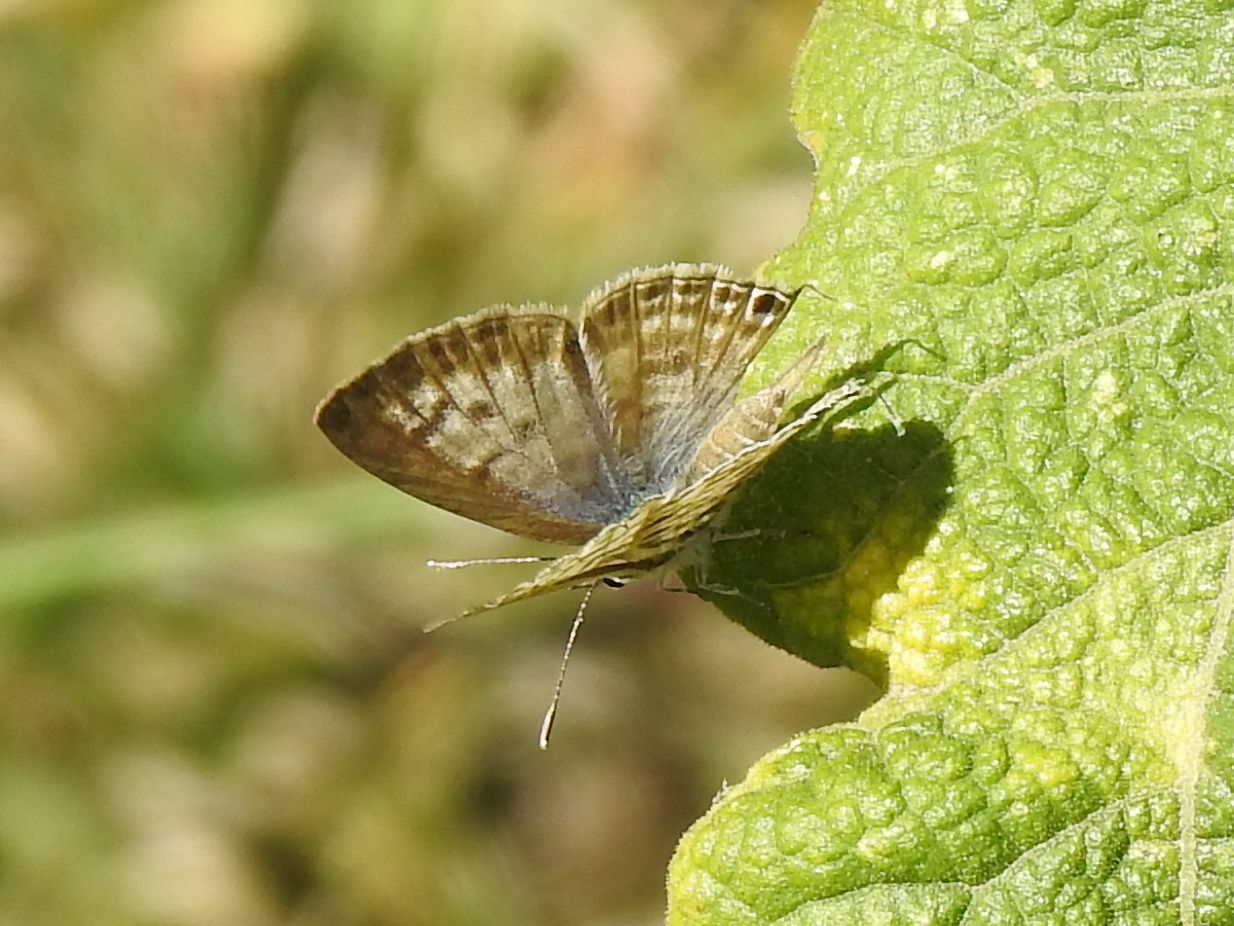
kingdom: Animalia
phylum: Arthropoda
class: Insecta
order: Lepidoptera
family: Lycaenidae
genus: Leptotes
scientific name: Leptotes
